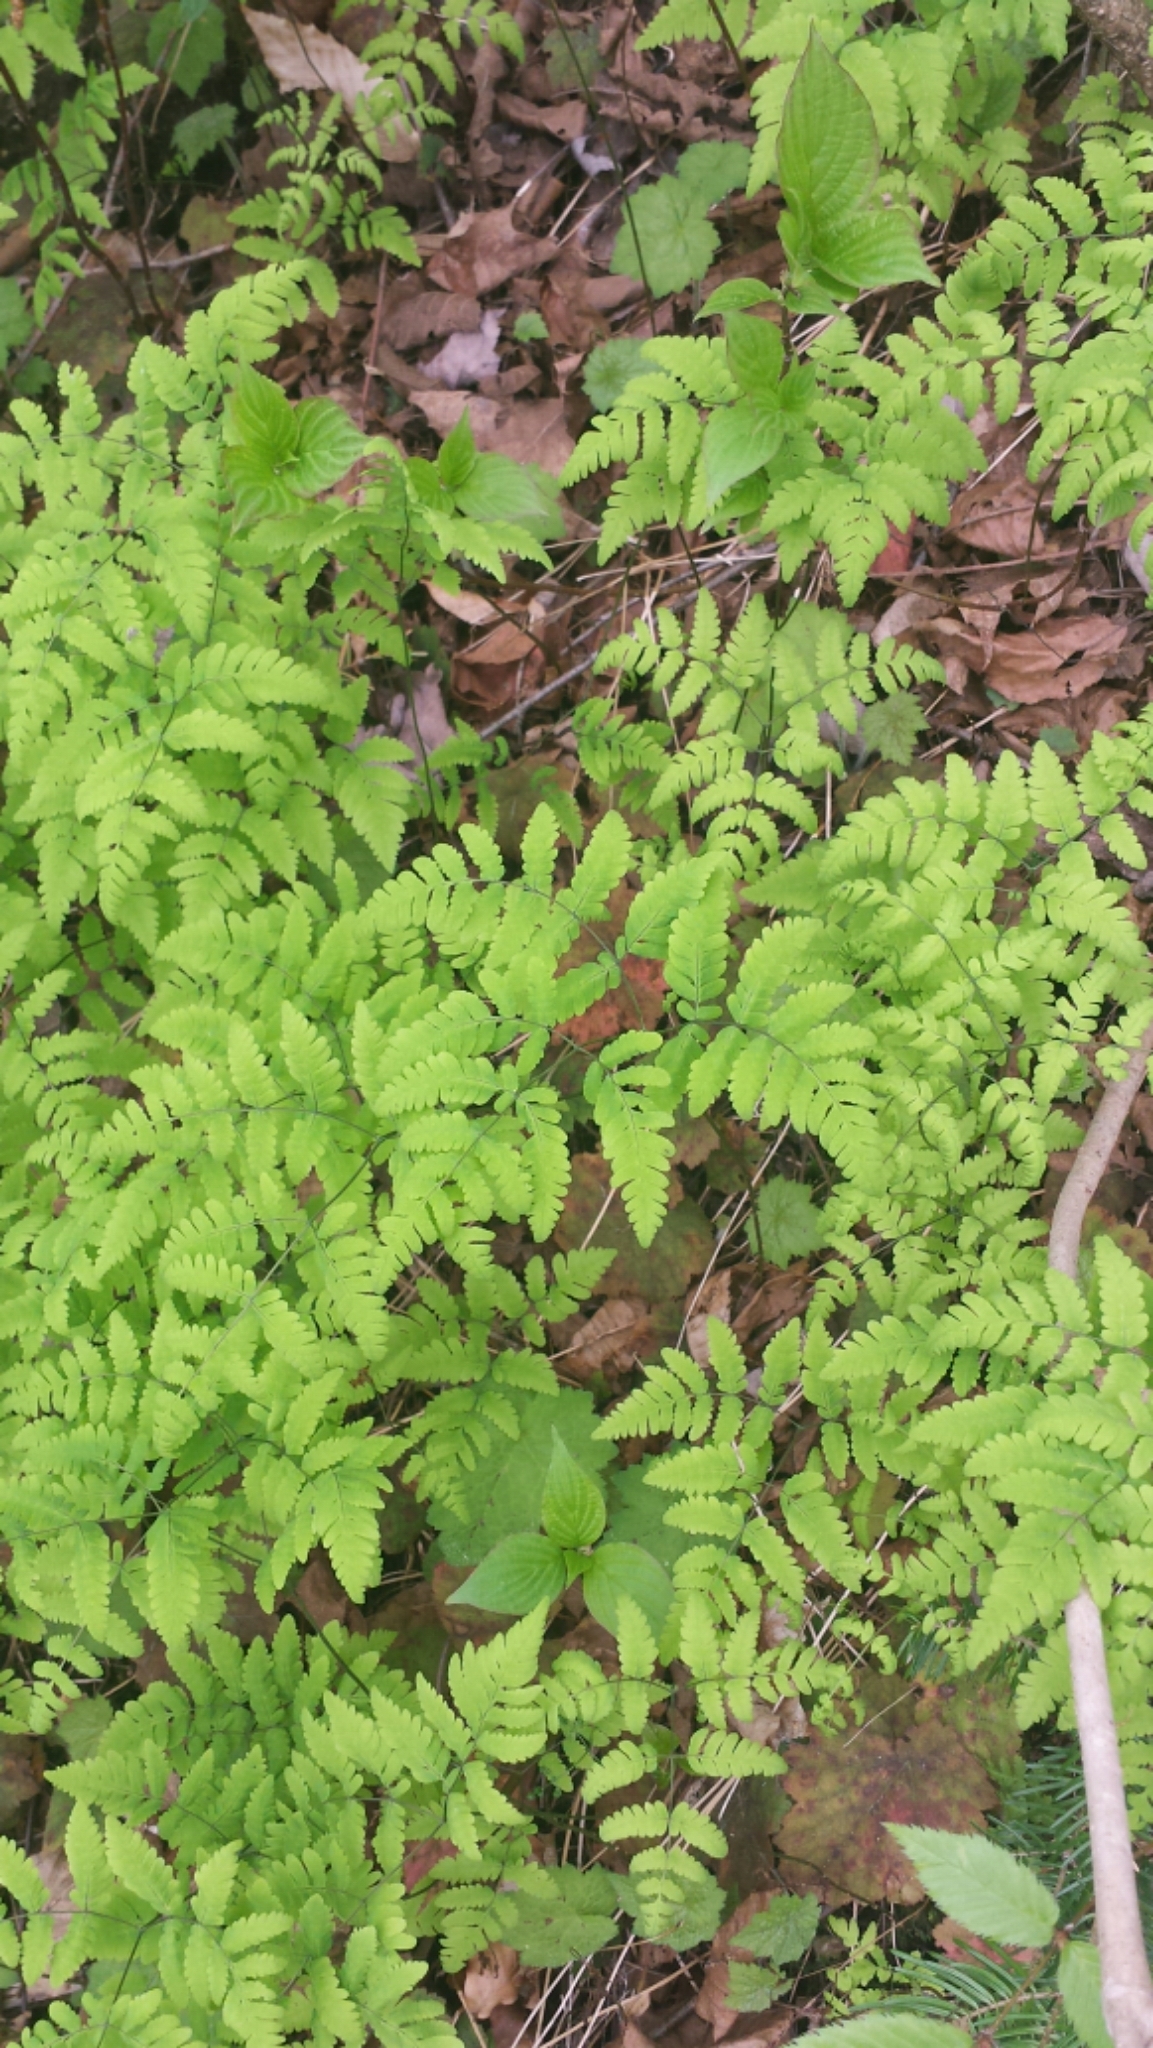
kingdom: Plantae
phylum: Tracheophyta
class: Polypodiopsida
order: Polypodiales
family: Cystopteridaceae
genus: Gymnocarpium
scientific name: Gymnocarpium dryopteris
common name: Oak fern
